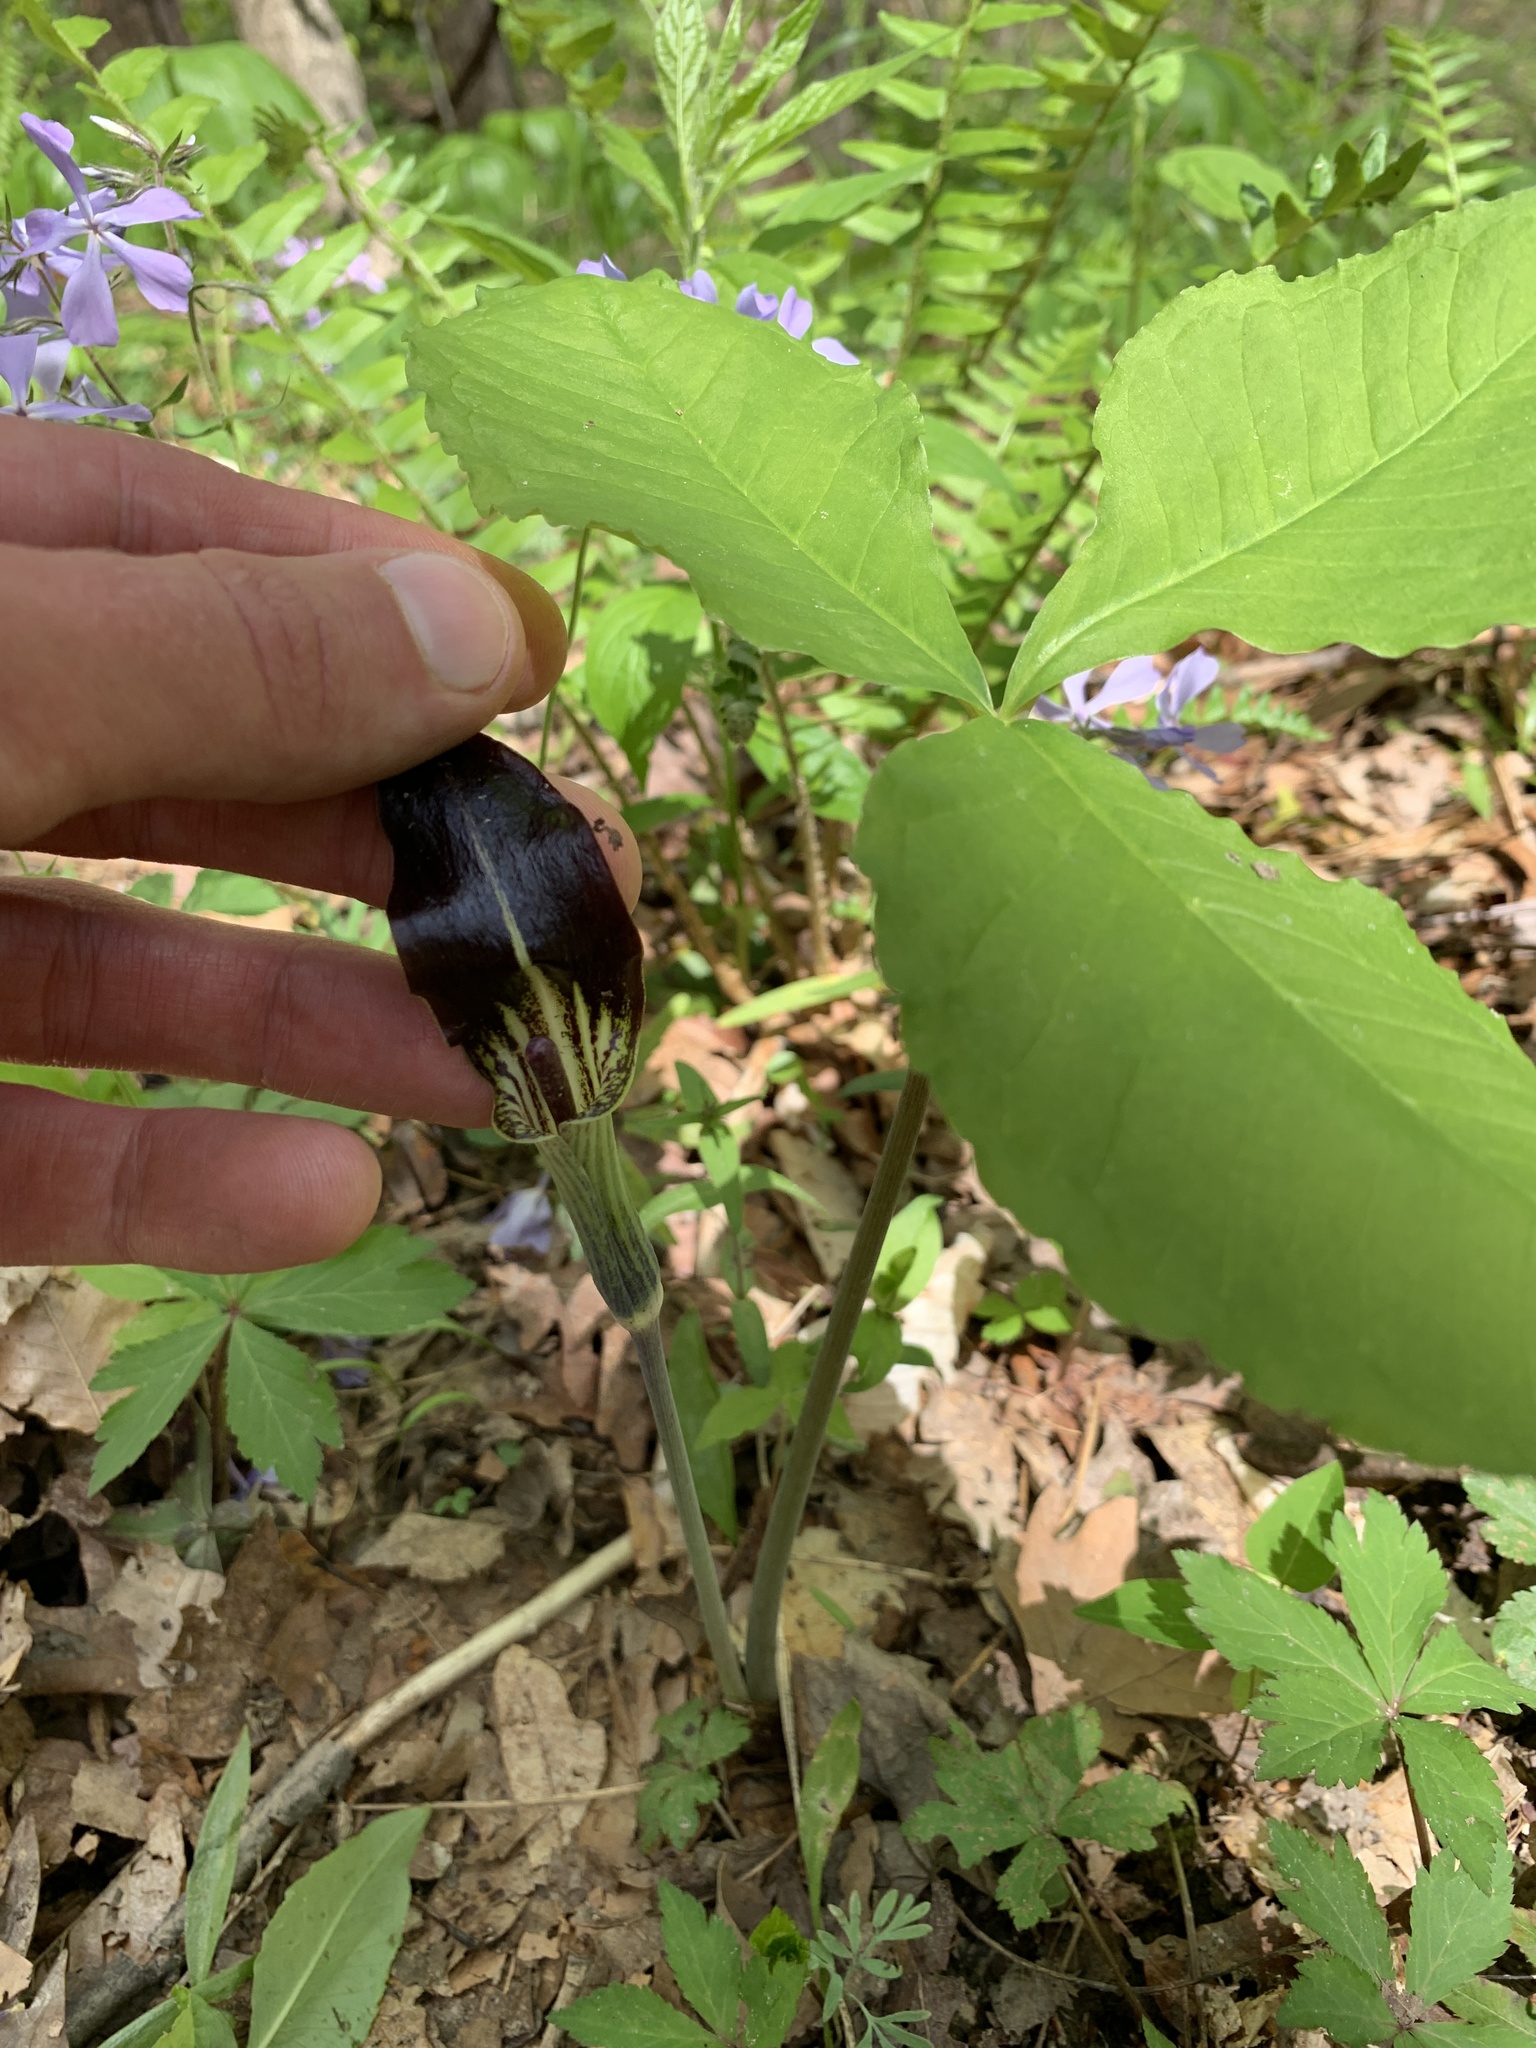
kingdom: Plantae
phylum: Tracheophyta
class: Liliopsida
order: Alismatales
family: Araceae
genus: Arisaema
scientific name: Arisaema triphyllum
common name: Jack-in-the-pulpit
